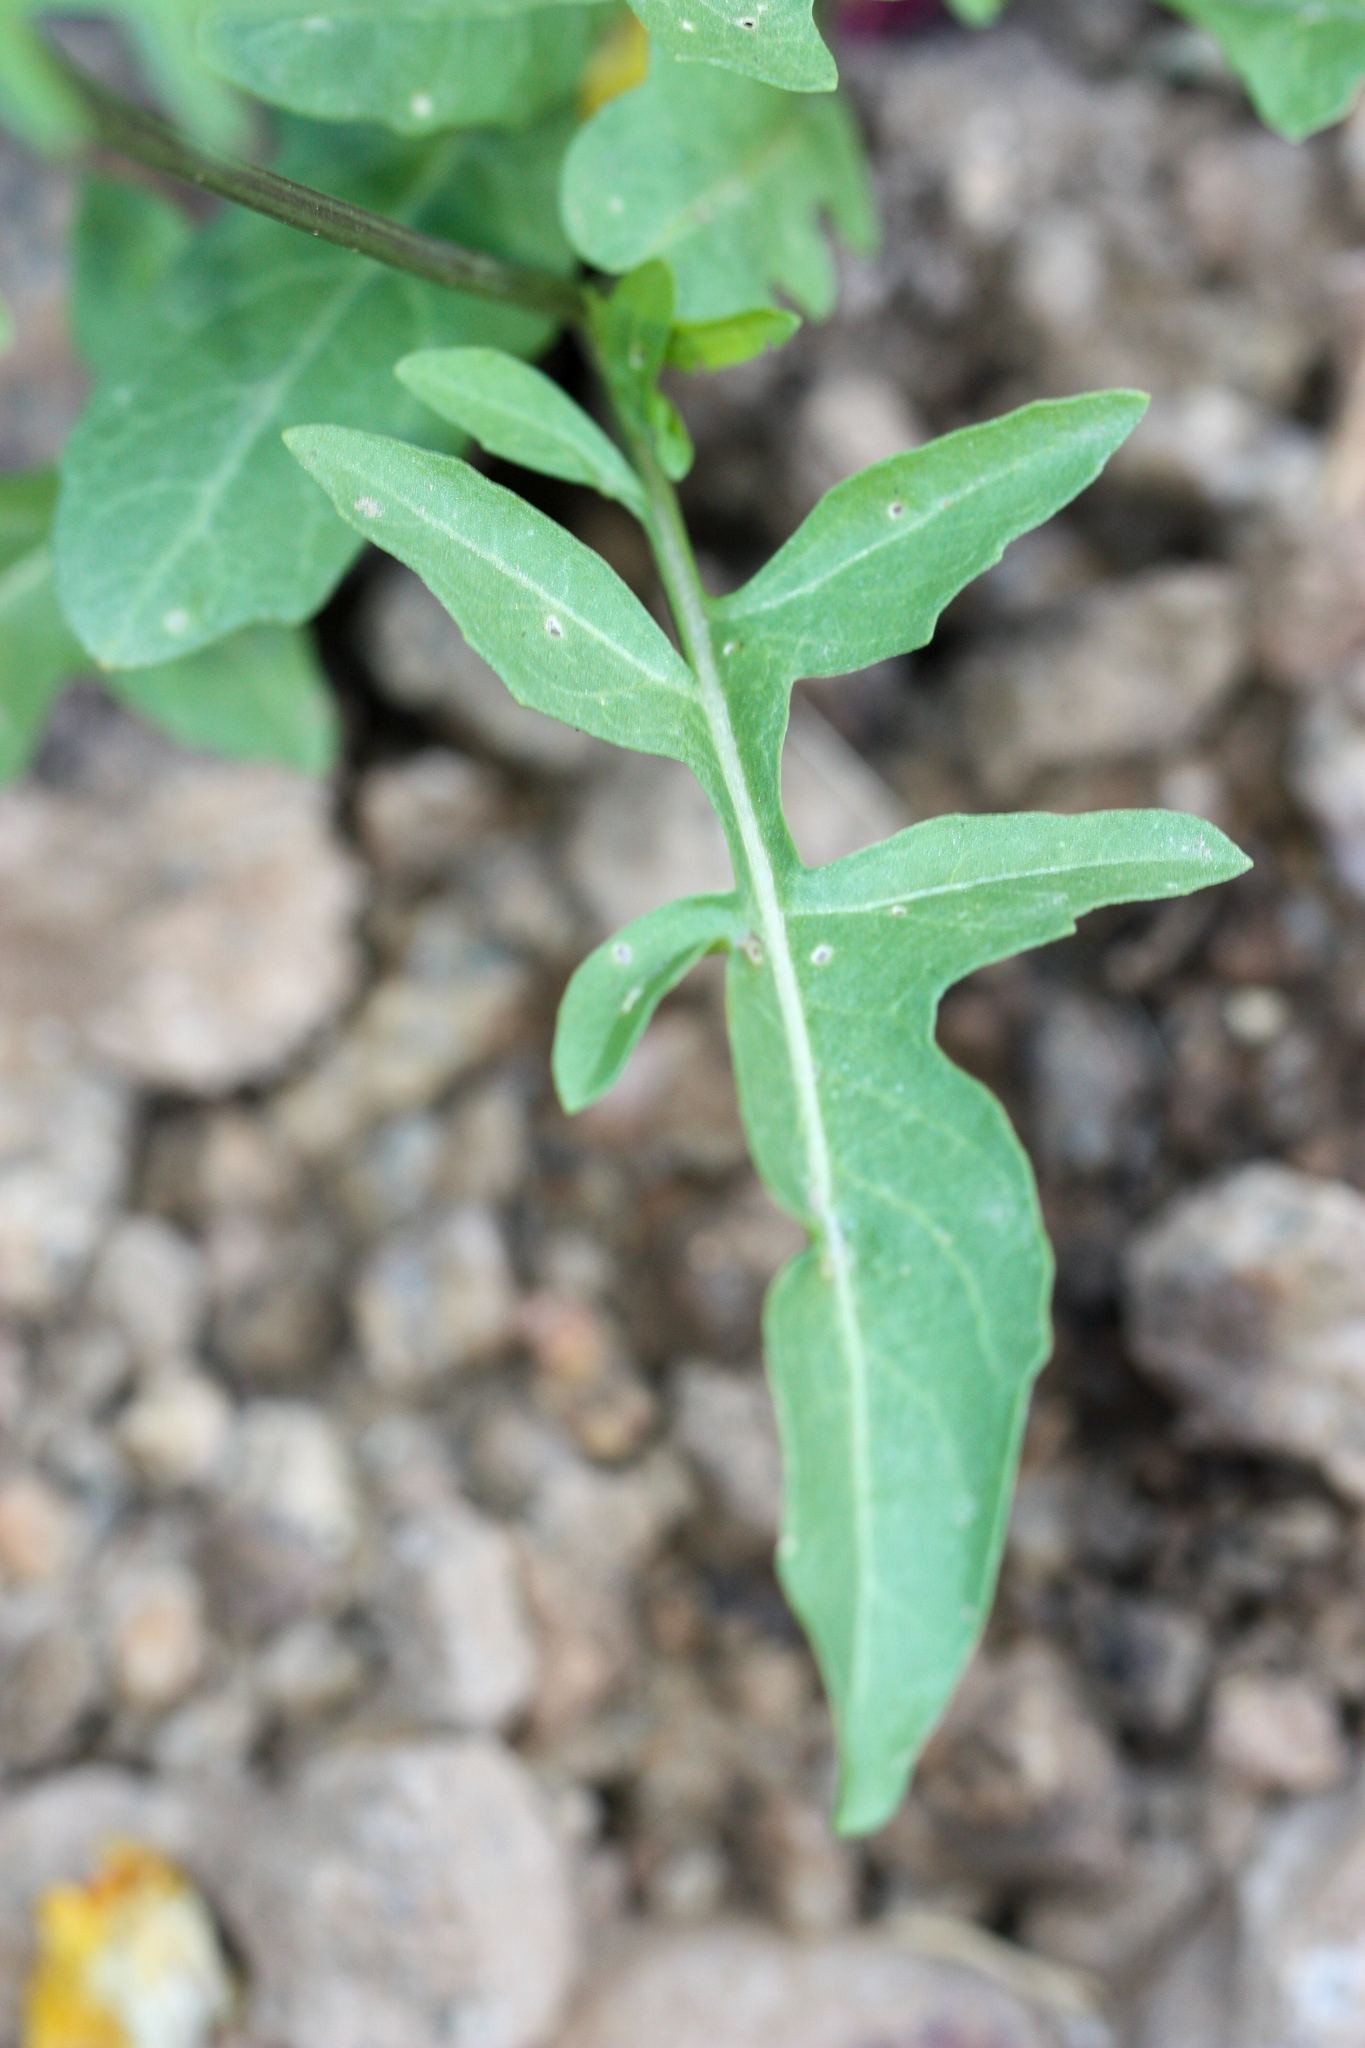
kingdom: Plantae
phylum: Tracheophyta
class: Magnoliopsida
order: Brassicales
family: Brassicaceae
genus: Sisymbrium
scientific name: Sisymbrium irio
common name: London rocket
